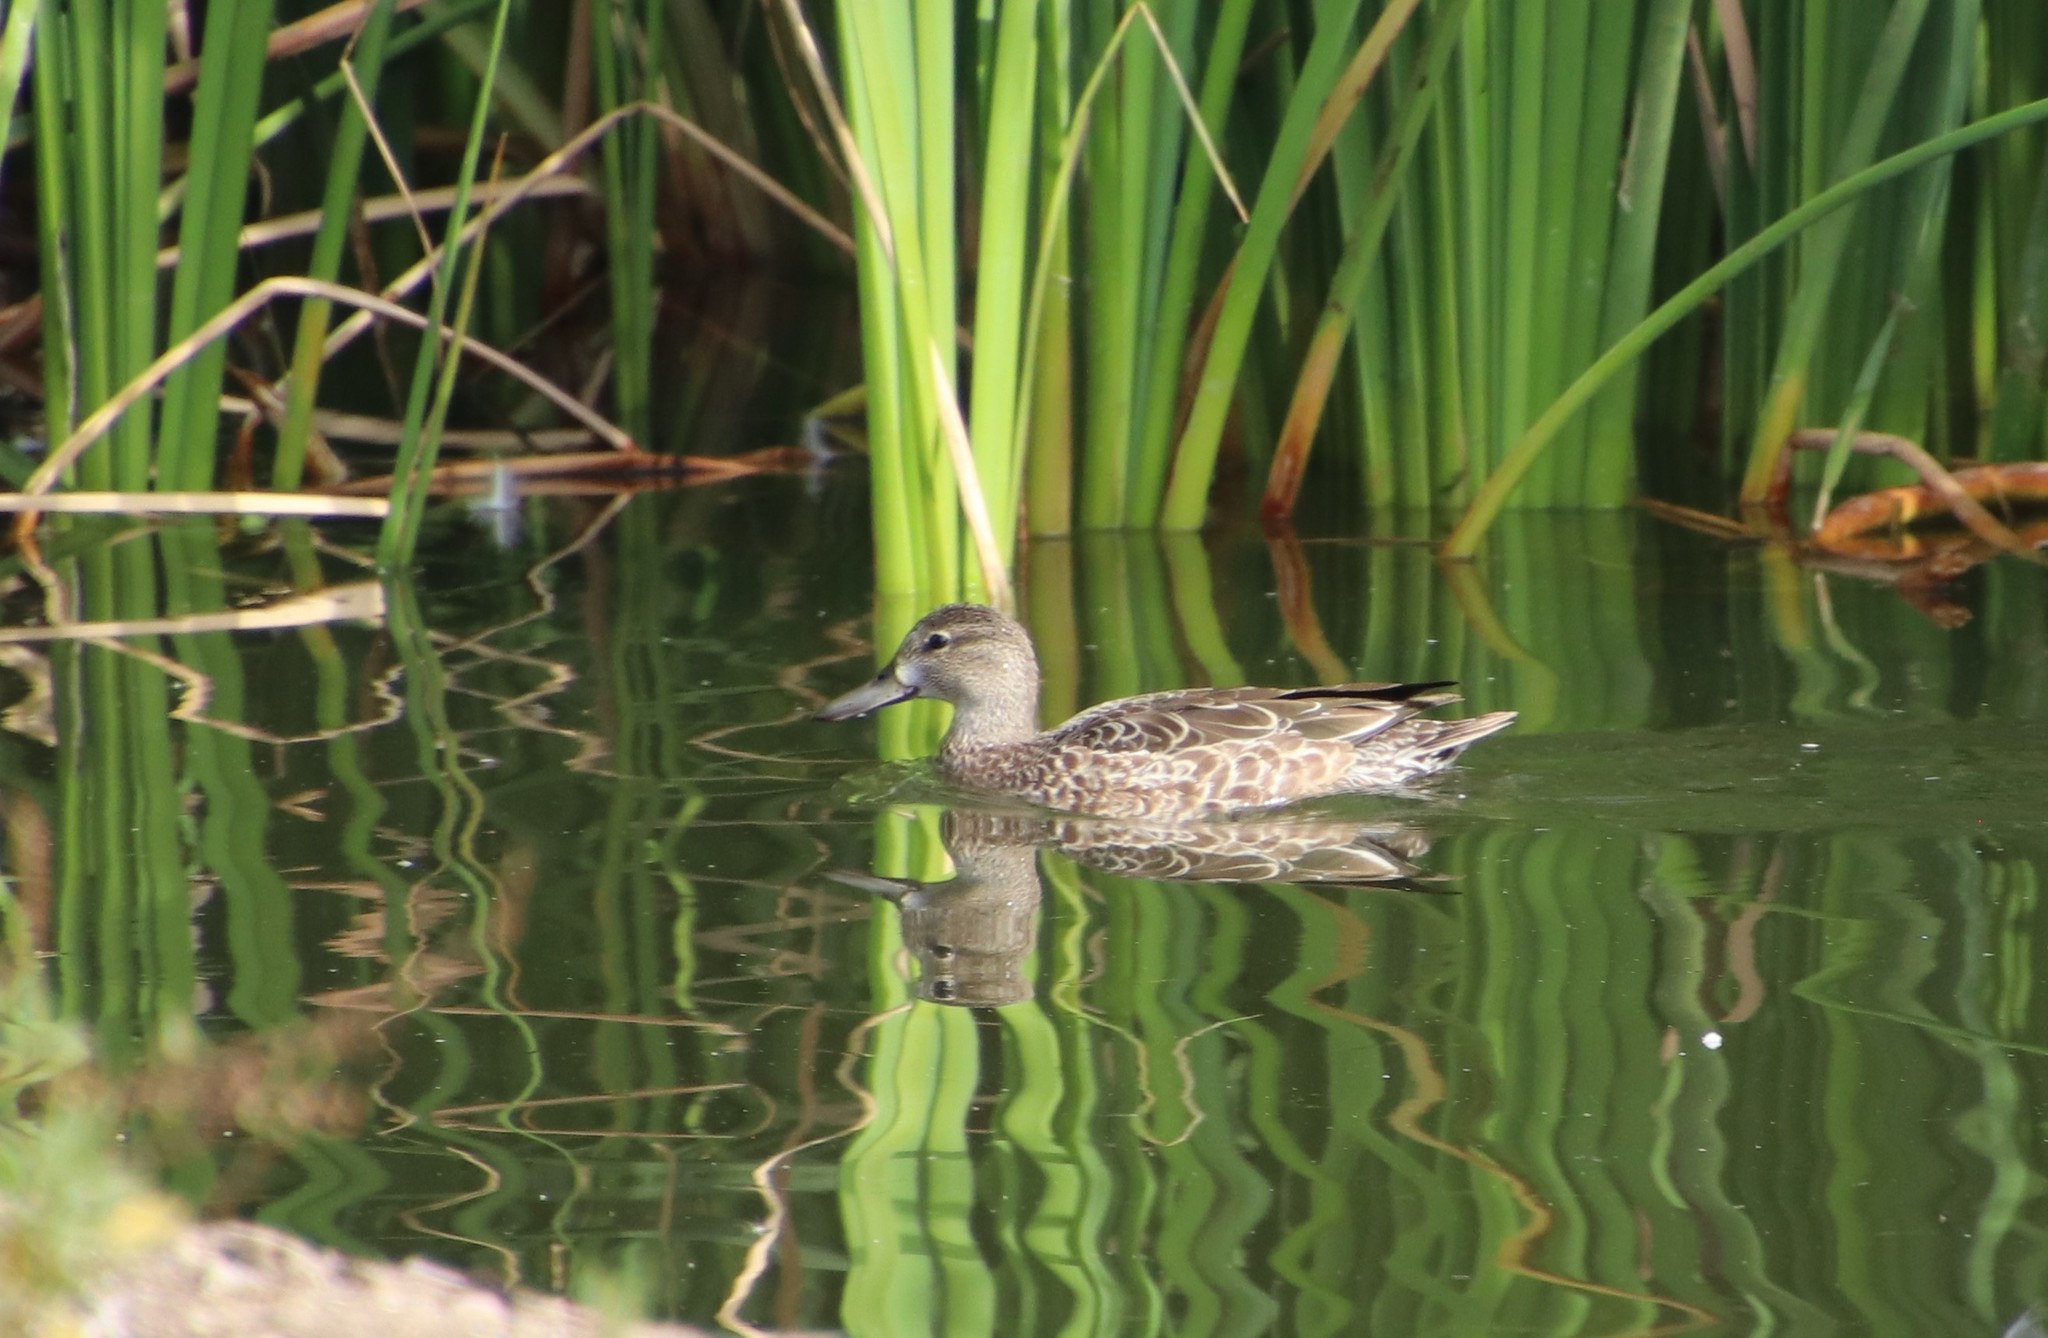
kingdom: Animalia
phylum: Chordata
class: Aves
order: Anseriformes
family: Anatidae
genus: Spatula
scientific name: Spatula discors
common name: Blue-winged teal
